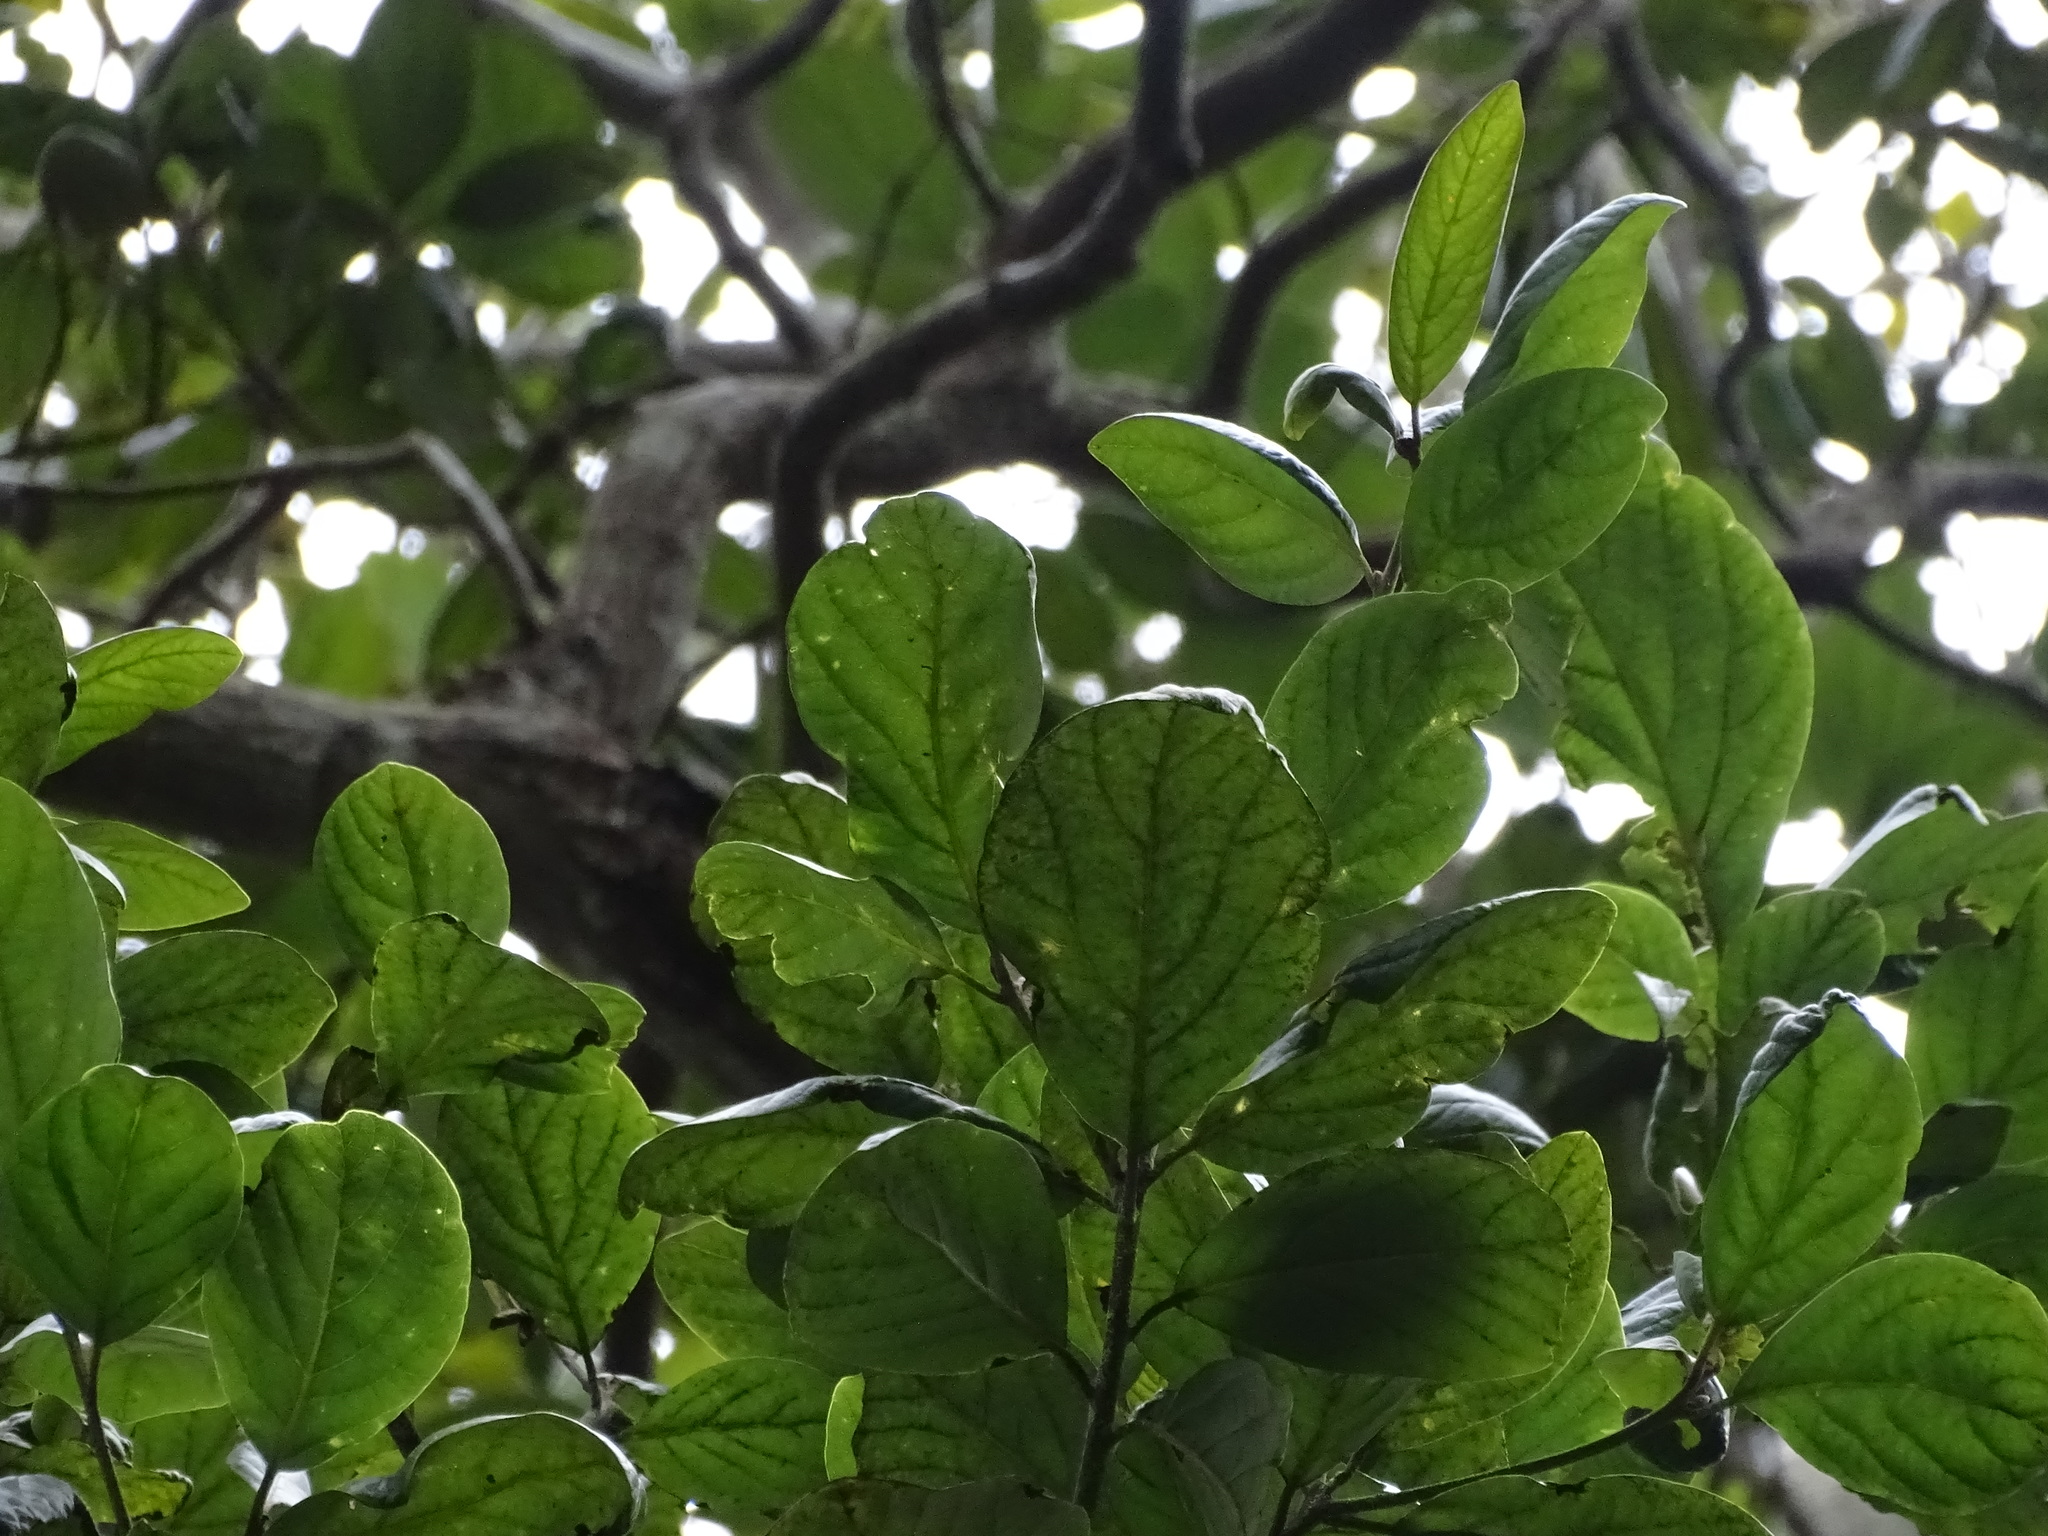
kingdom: Plantae
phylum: Tracheophyta
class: Magnoliopsida
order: Laurales
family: Lauraceae
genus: Persea
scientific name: Persea lingue
